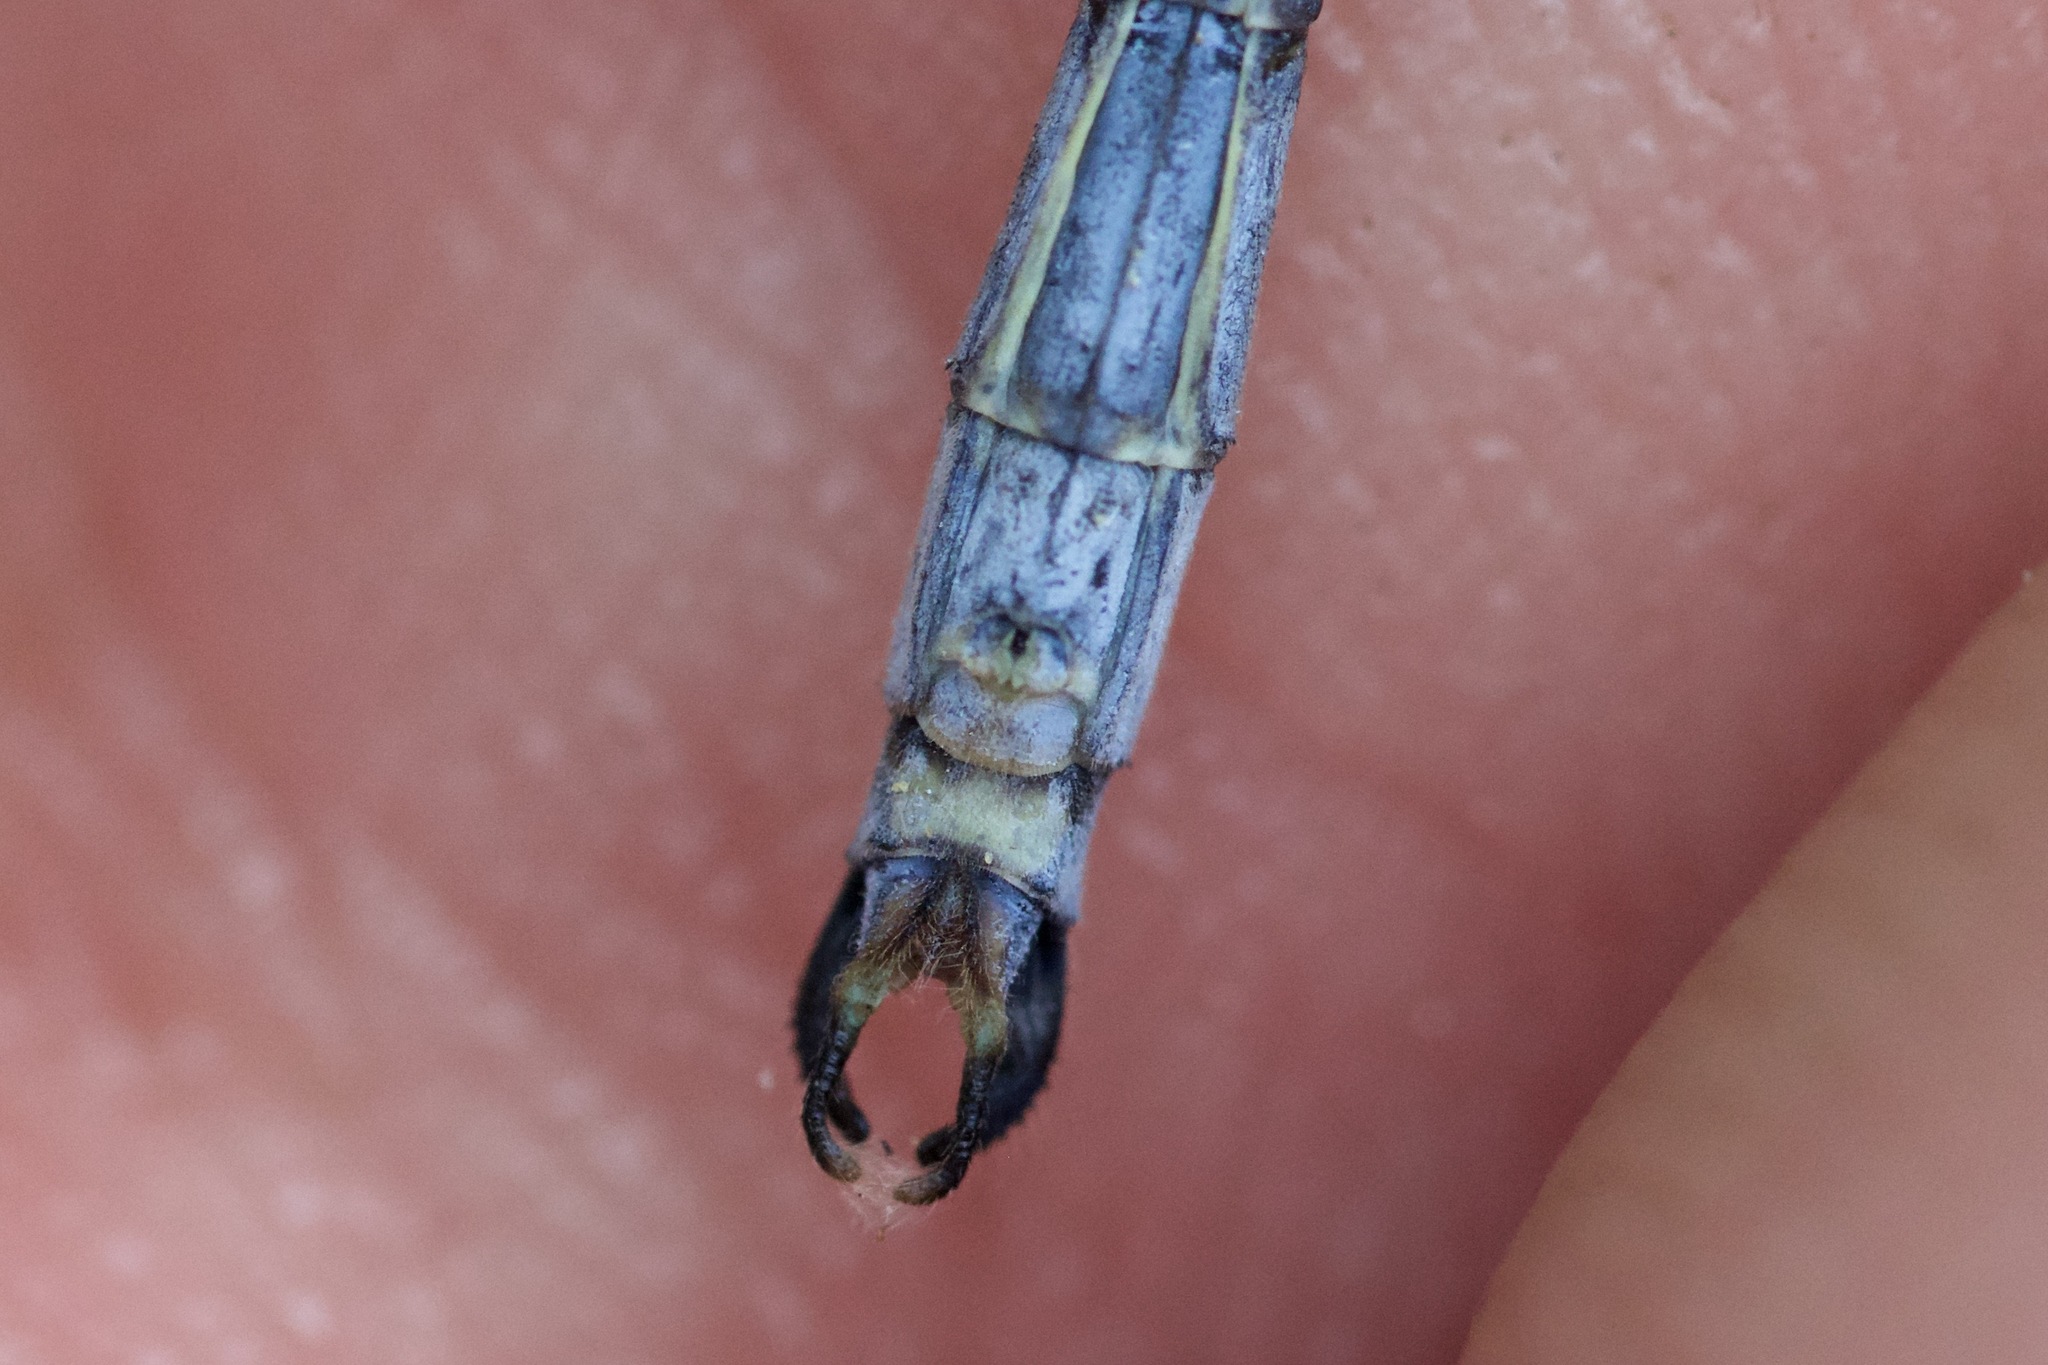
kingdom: Animalia
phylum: Arthropoda
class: Insecta
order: Odonata
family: Lestidae
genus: Lestes
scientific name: Lestes inaequalis
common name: Elegant spreadwing
